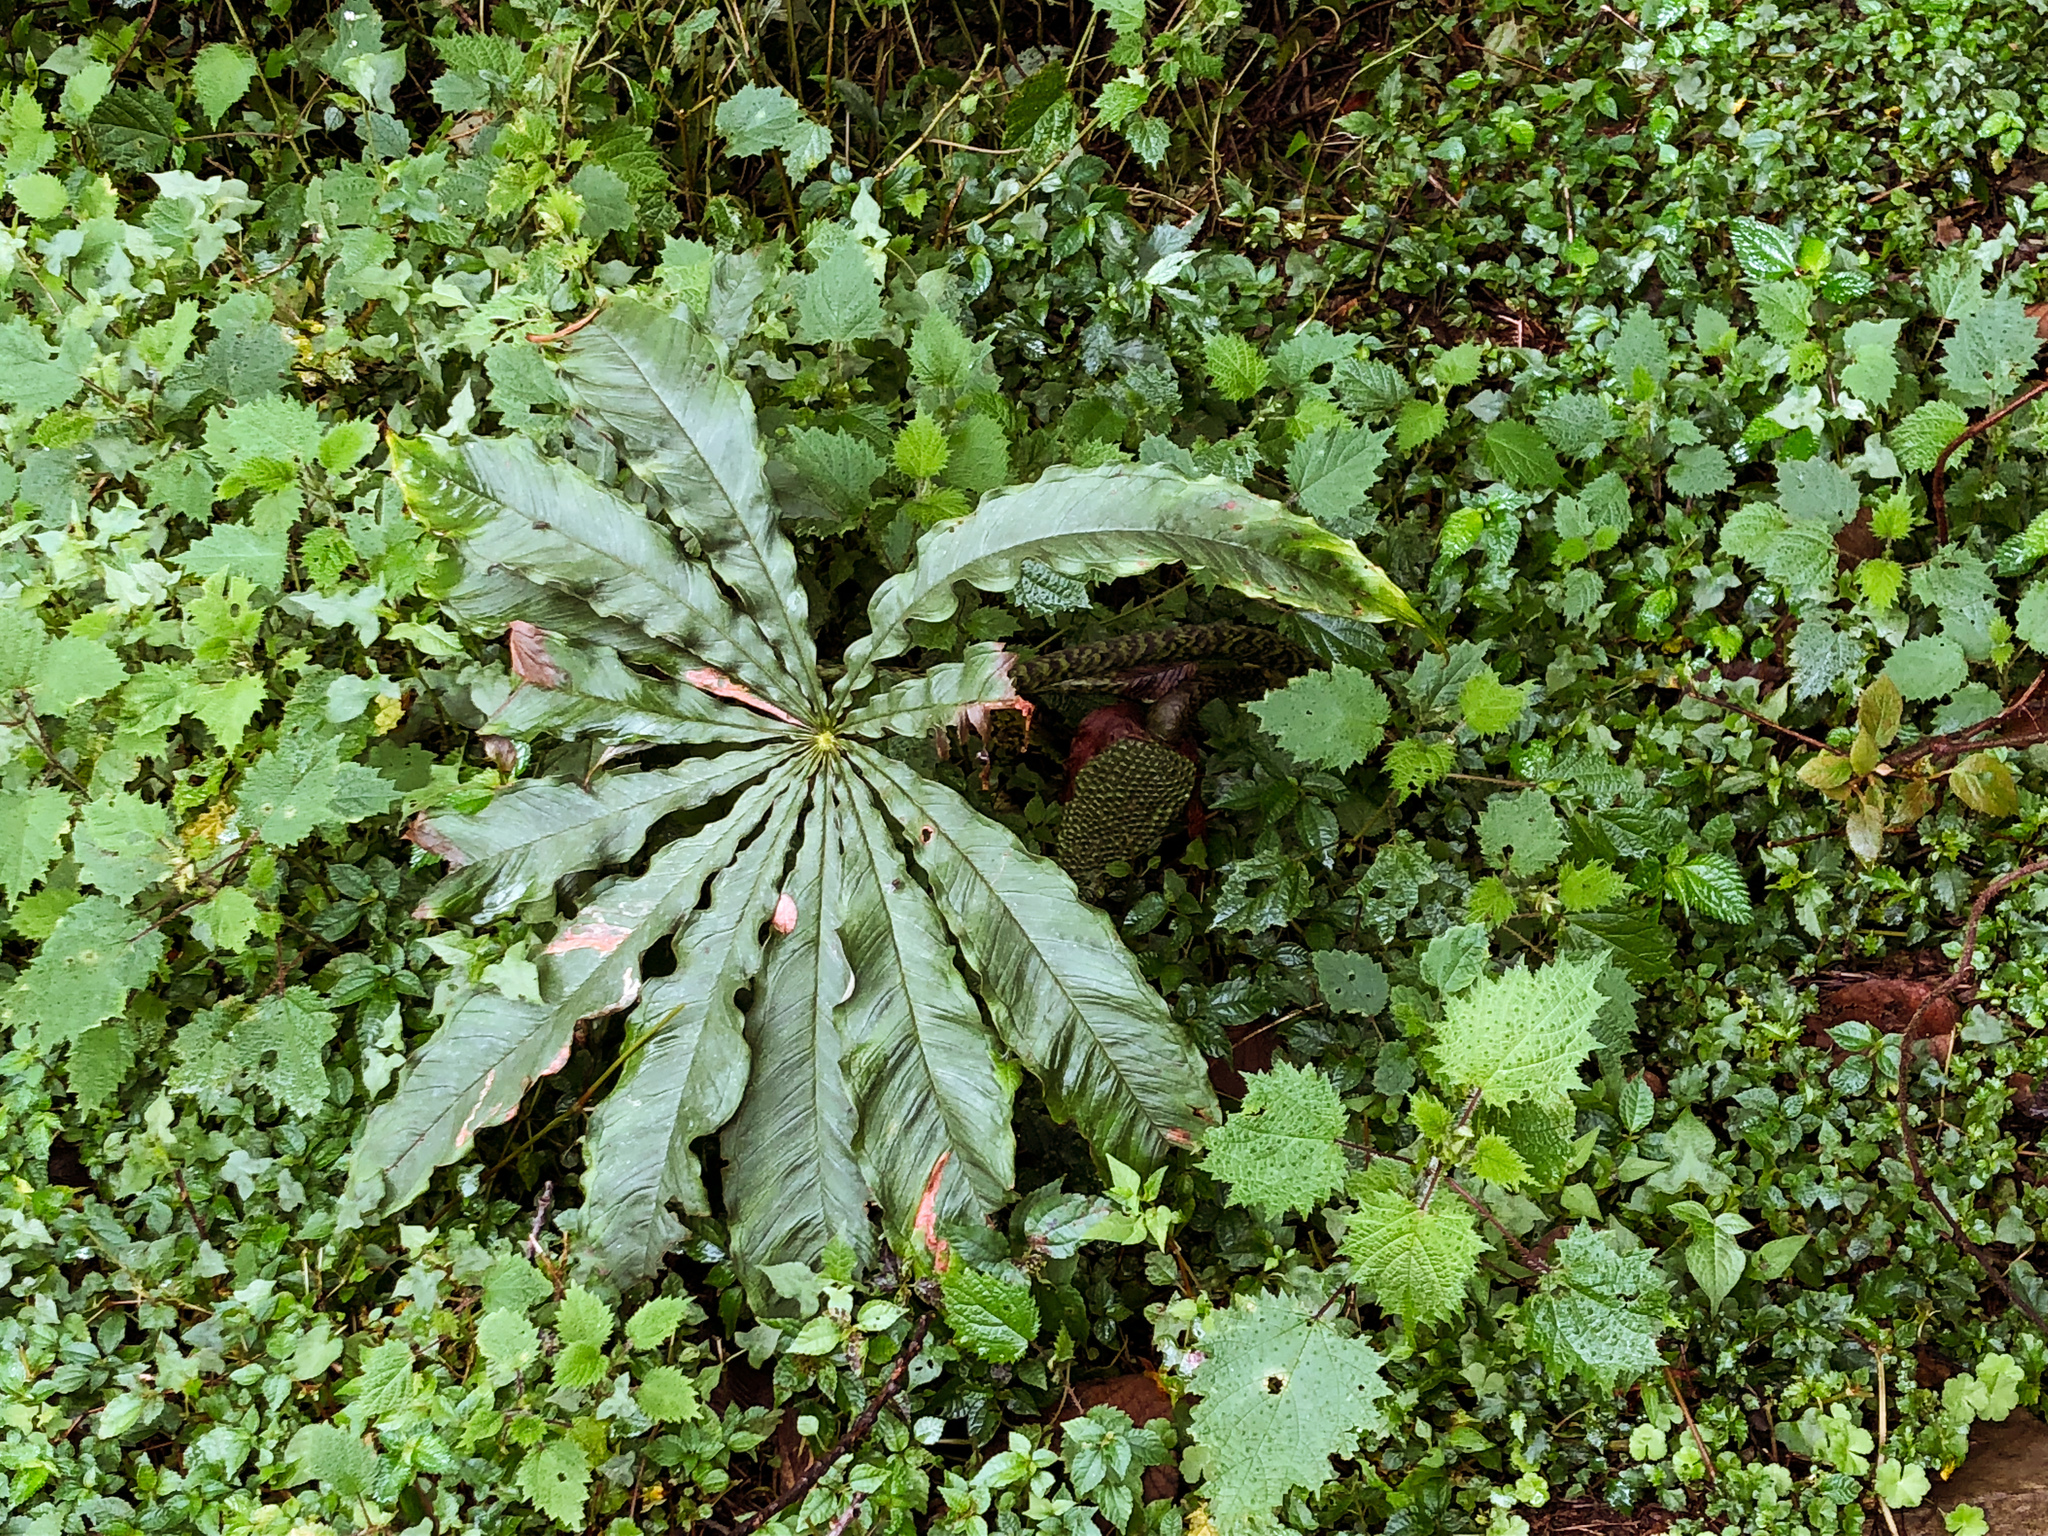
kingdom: Plantae
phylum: Tracheophyta
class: Liliopsida
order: Alismatales
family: Araceae
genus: Arisaema
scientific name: Arisaema taiwanense
